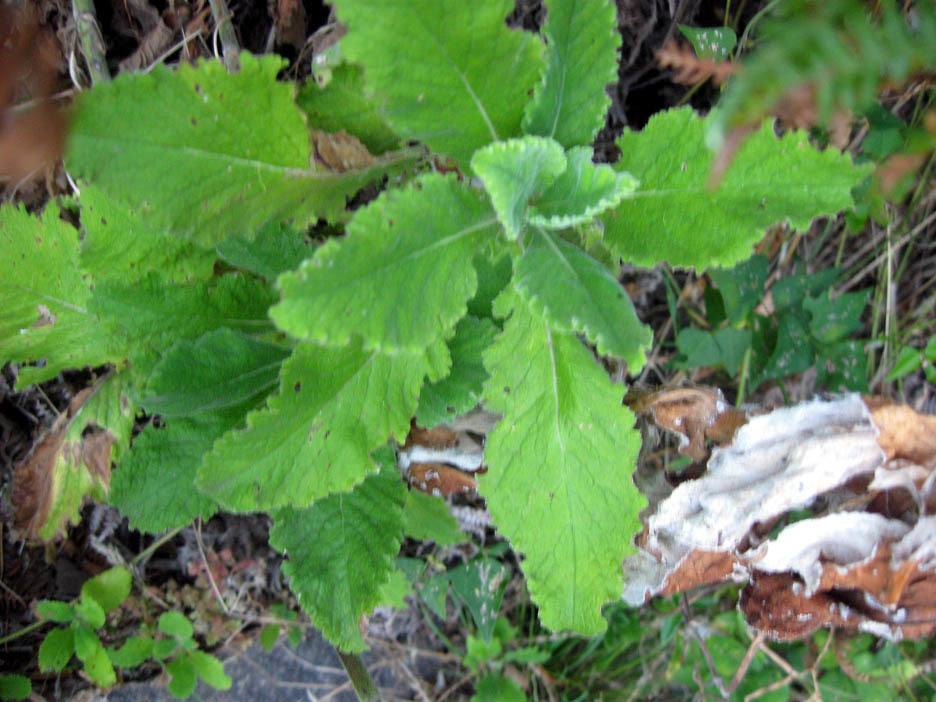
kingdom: Plantae
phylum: Tracheophyta
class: Magnoliopsida
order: Asterales
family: Asteraceae
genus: Helichrysum
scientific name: Helichrysum foetidum
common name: Stinking everlasting
